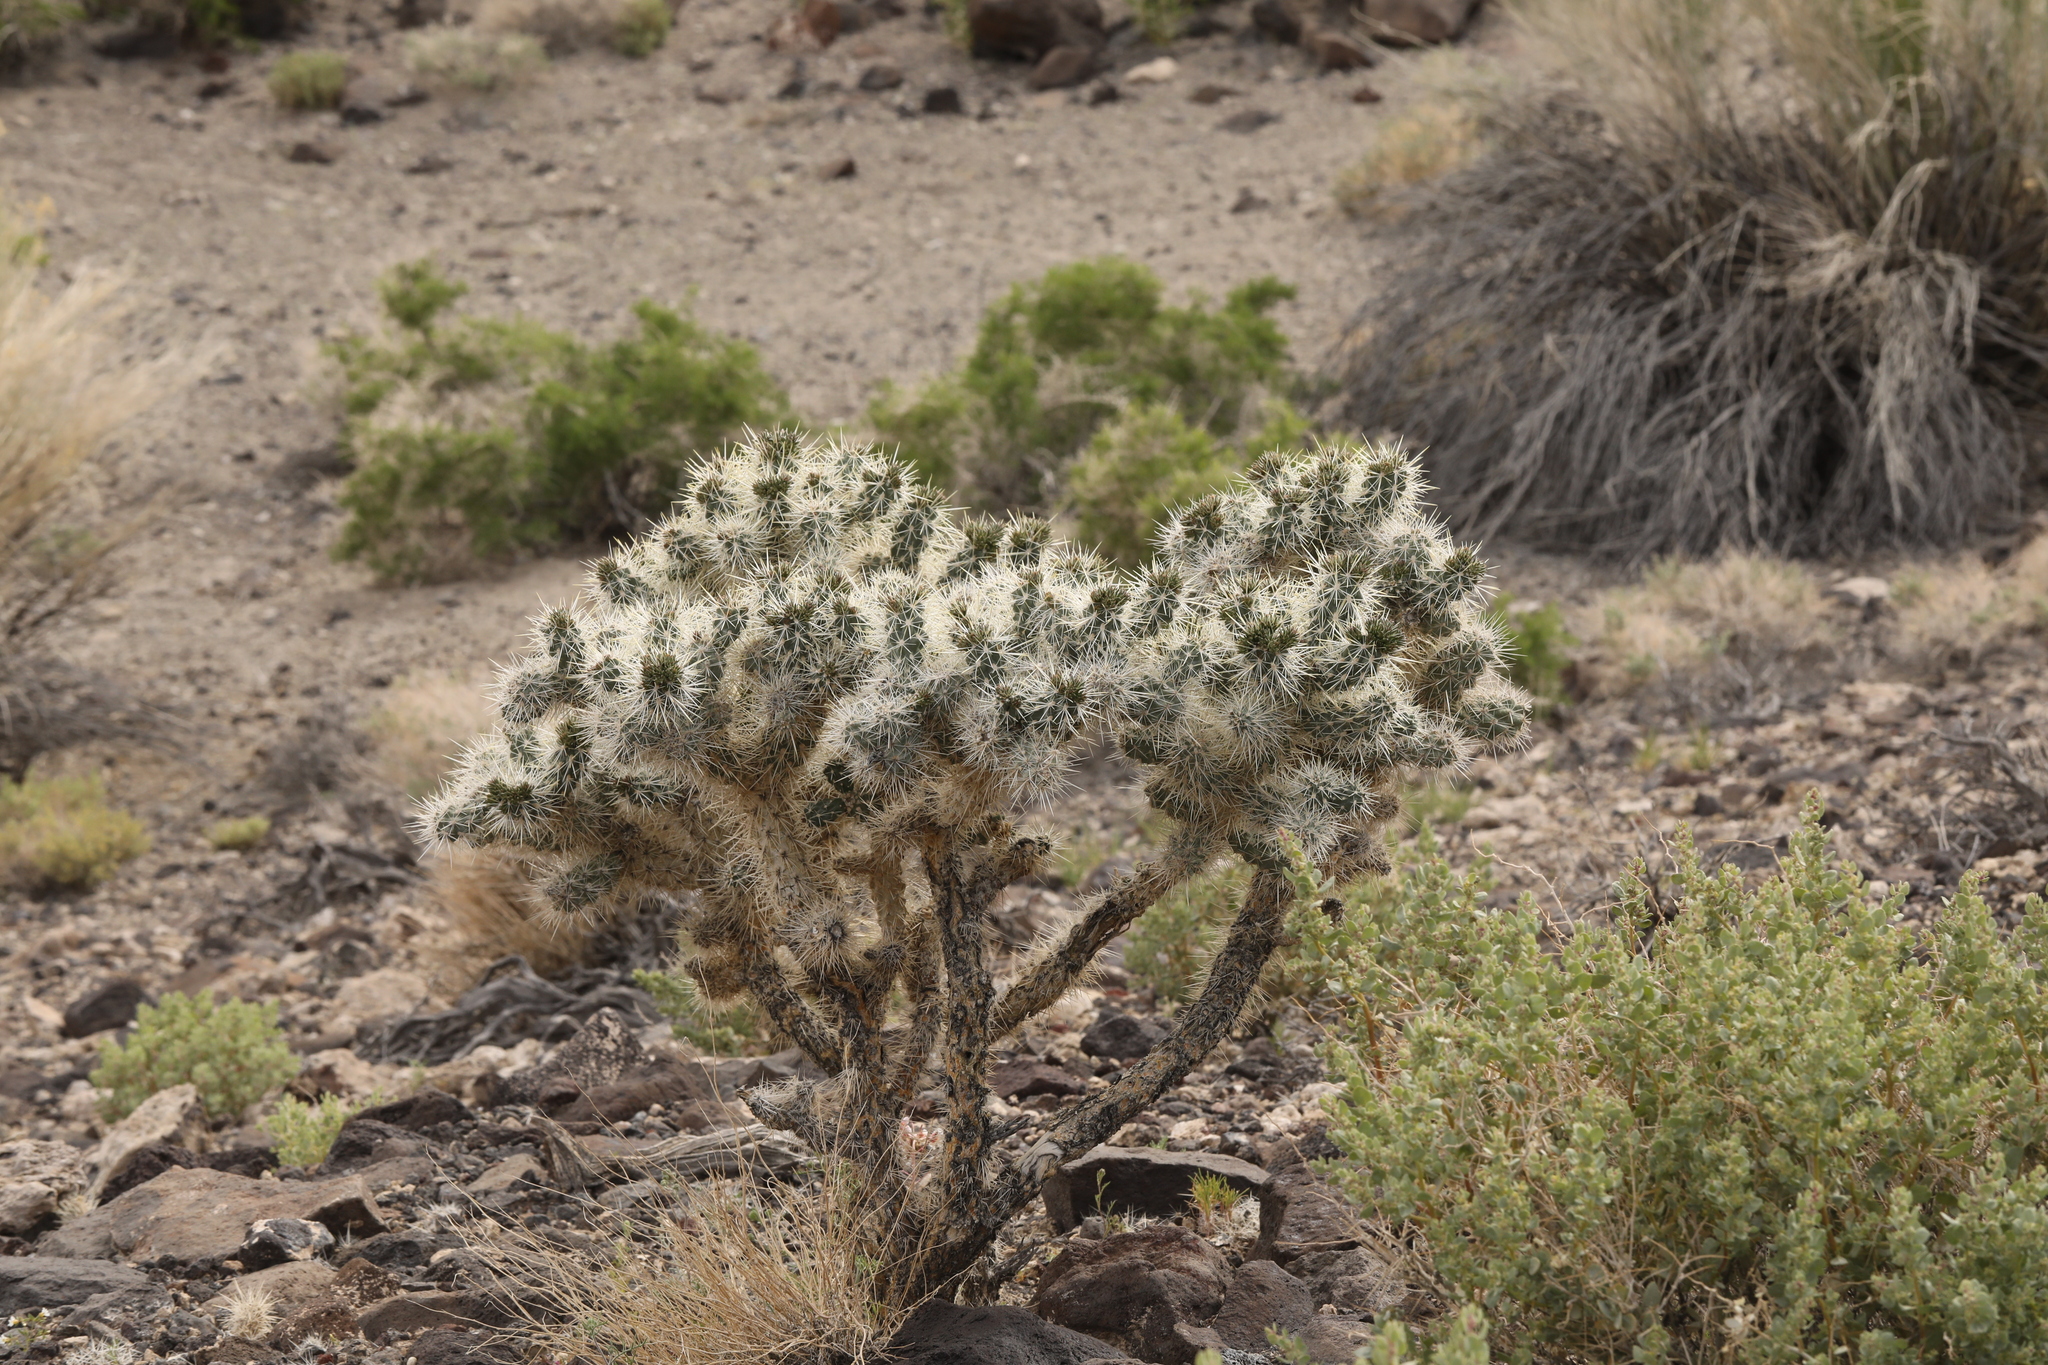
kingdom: Plantae
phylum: Tracheophyta
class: Magnoliopsida
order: Caryophyllales
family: Cactaceae
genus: Cylindropuntia
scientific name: Cylindropuntia echinocarpa
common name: Ground cholla
